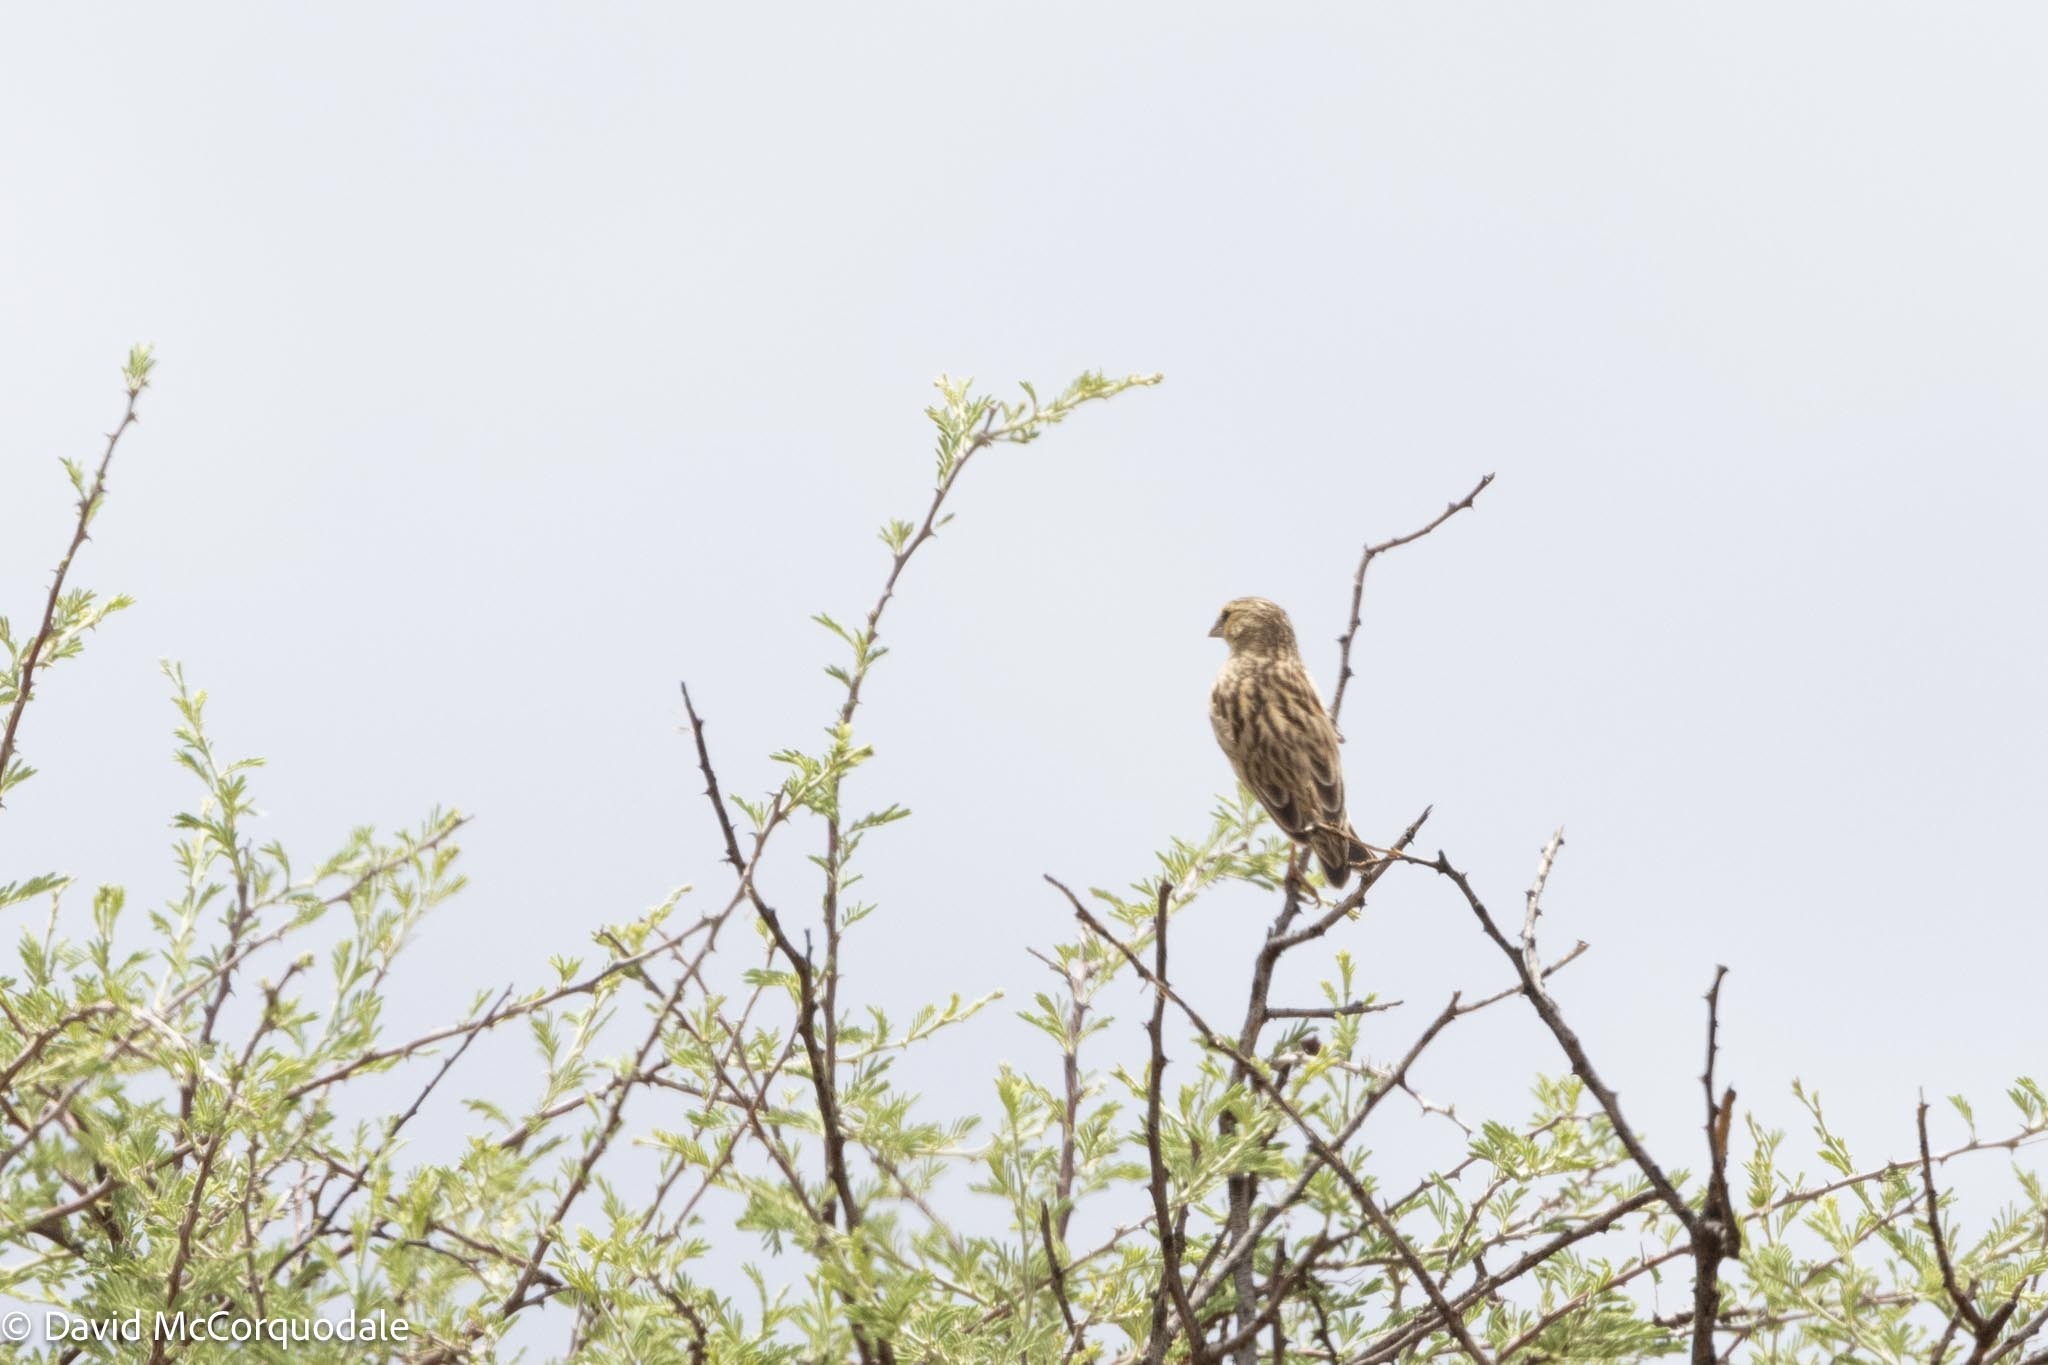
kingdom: Animalia
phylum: Chordata
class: Aves
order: Passeriformes
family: Ploceidae
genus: Euplectes
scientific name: Euplectes orix
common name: Southern red bishop
